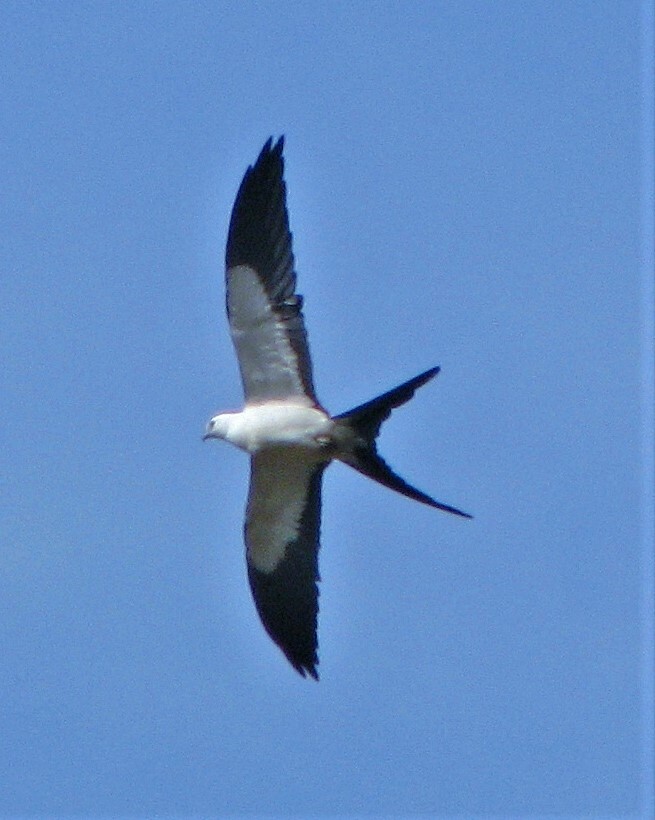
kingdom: Animalia
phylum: Chordata
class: Aves
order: Accipitriformes
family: Accipitridae
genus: Elanoides
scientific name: Elanoides forficatus
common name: Swallow-tailed kite
